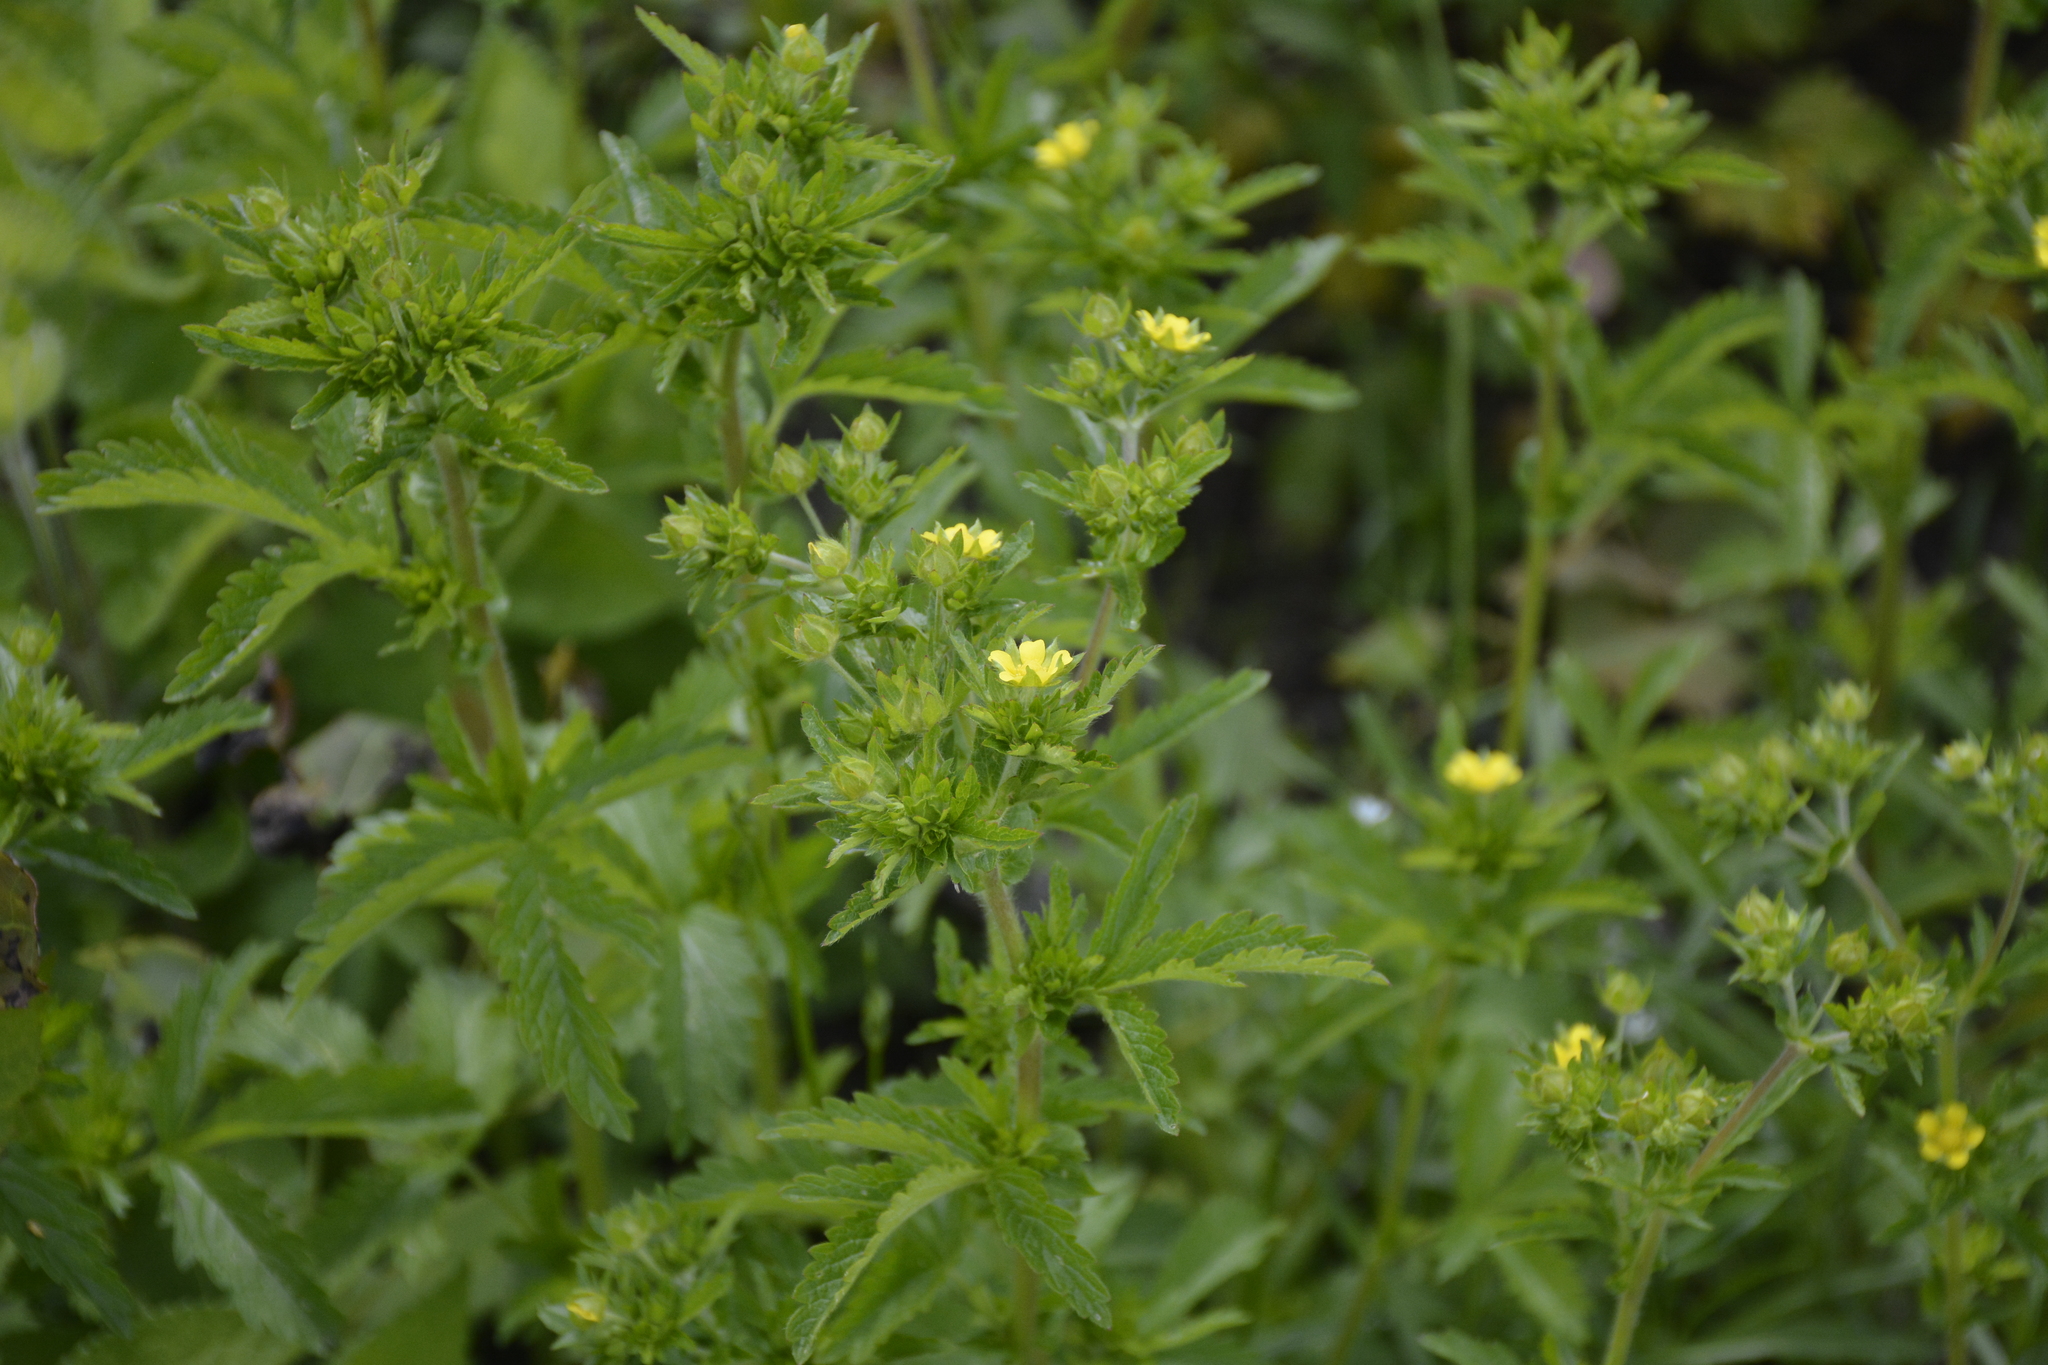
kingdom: Plantae
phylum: Tracheophyta
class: Magnoliopsida
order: Rosales
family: Rosaceae
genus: Potentilla
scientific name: Potentilla norvegica
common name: Ternate-leaved cinquefoil
